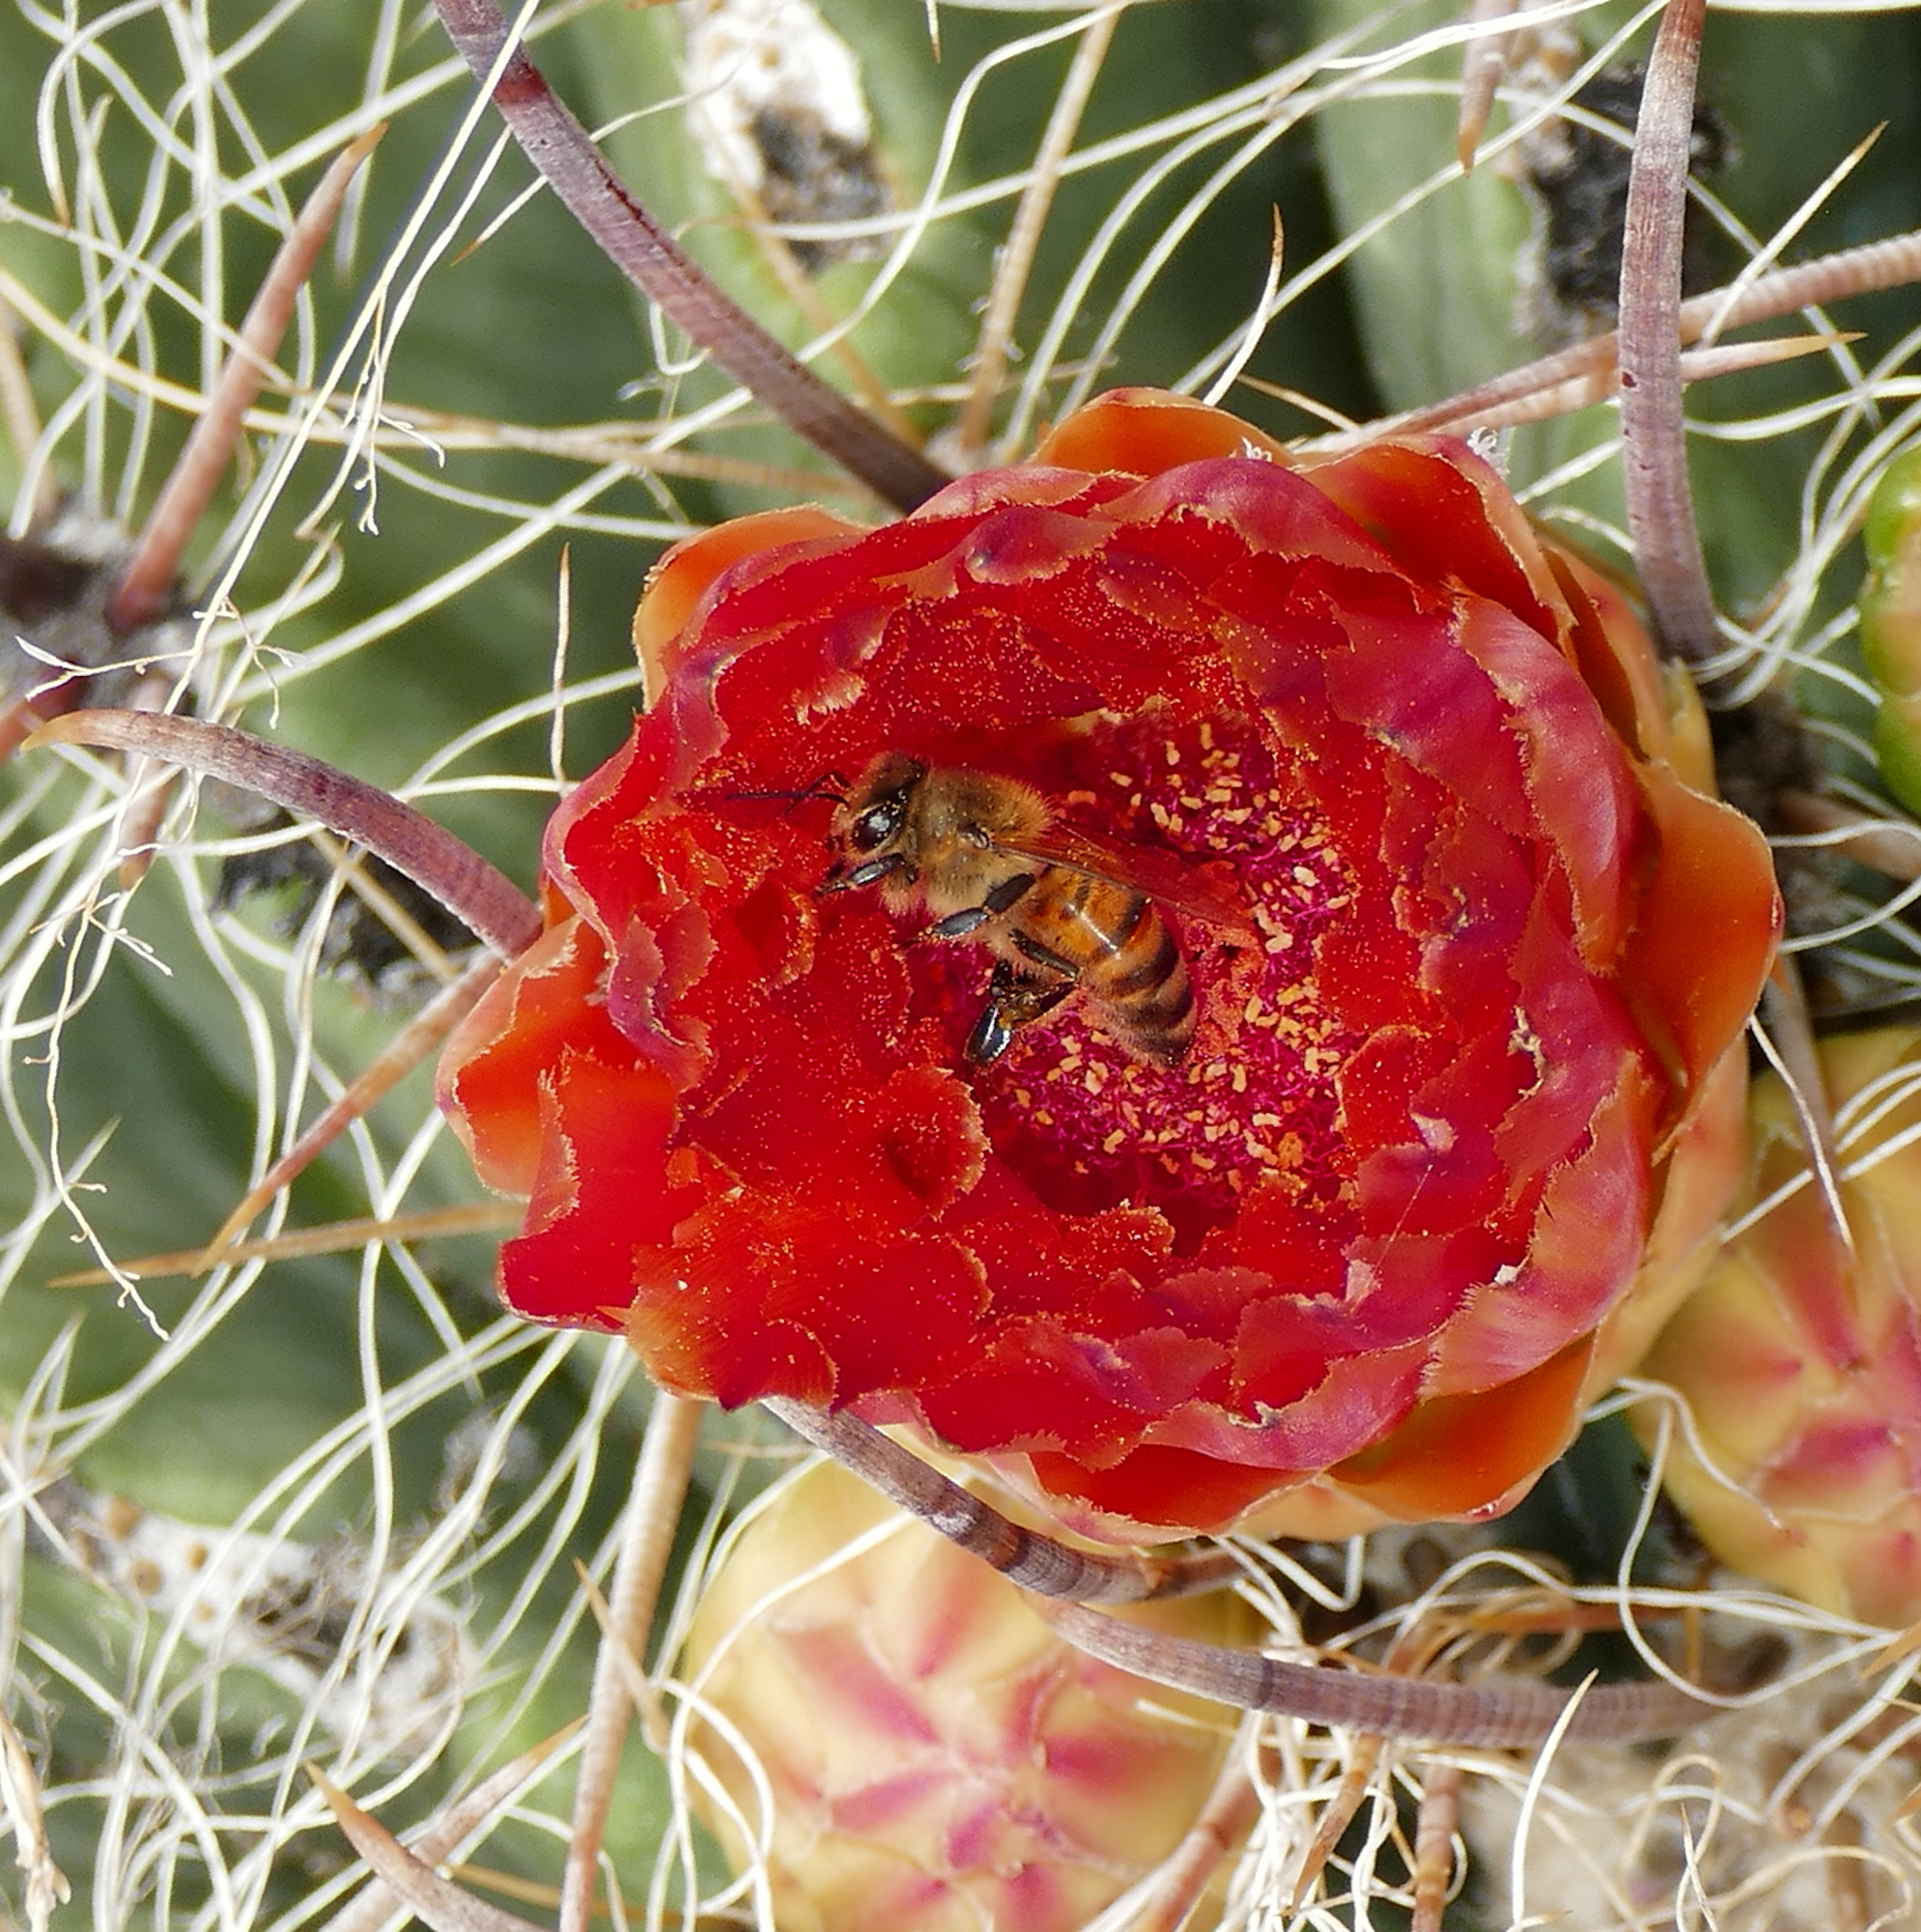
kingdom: Animalia
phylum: Arthropoda
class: Insecta
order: Hymenoptera
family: Apidae
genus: Apis
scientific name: Apis mellifera
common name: Honey bee
